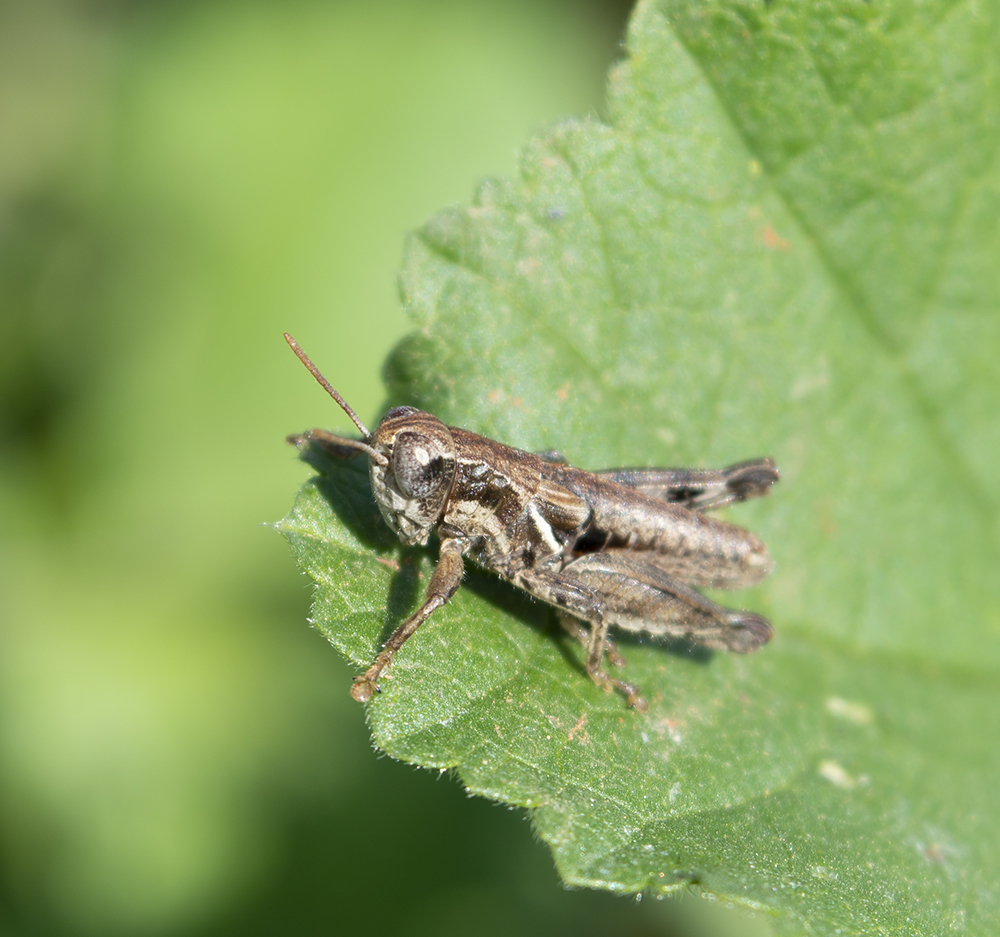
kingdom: Animalia
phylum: Arthropoda
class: Insecta
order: Orthoptera
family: Acrididae
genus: Pezotettix
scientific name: Pezotettix giornae
